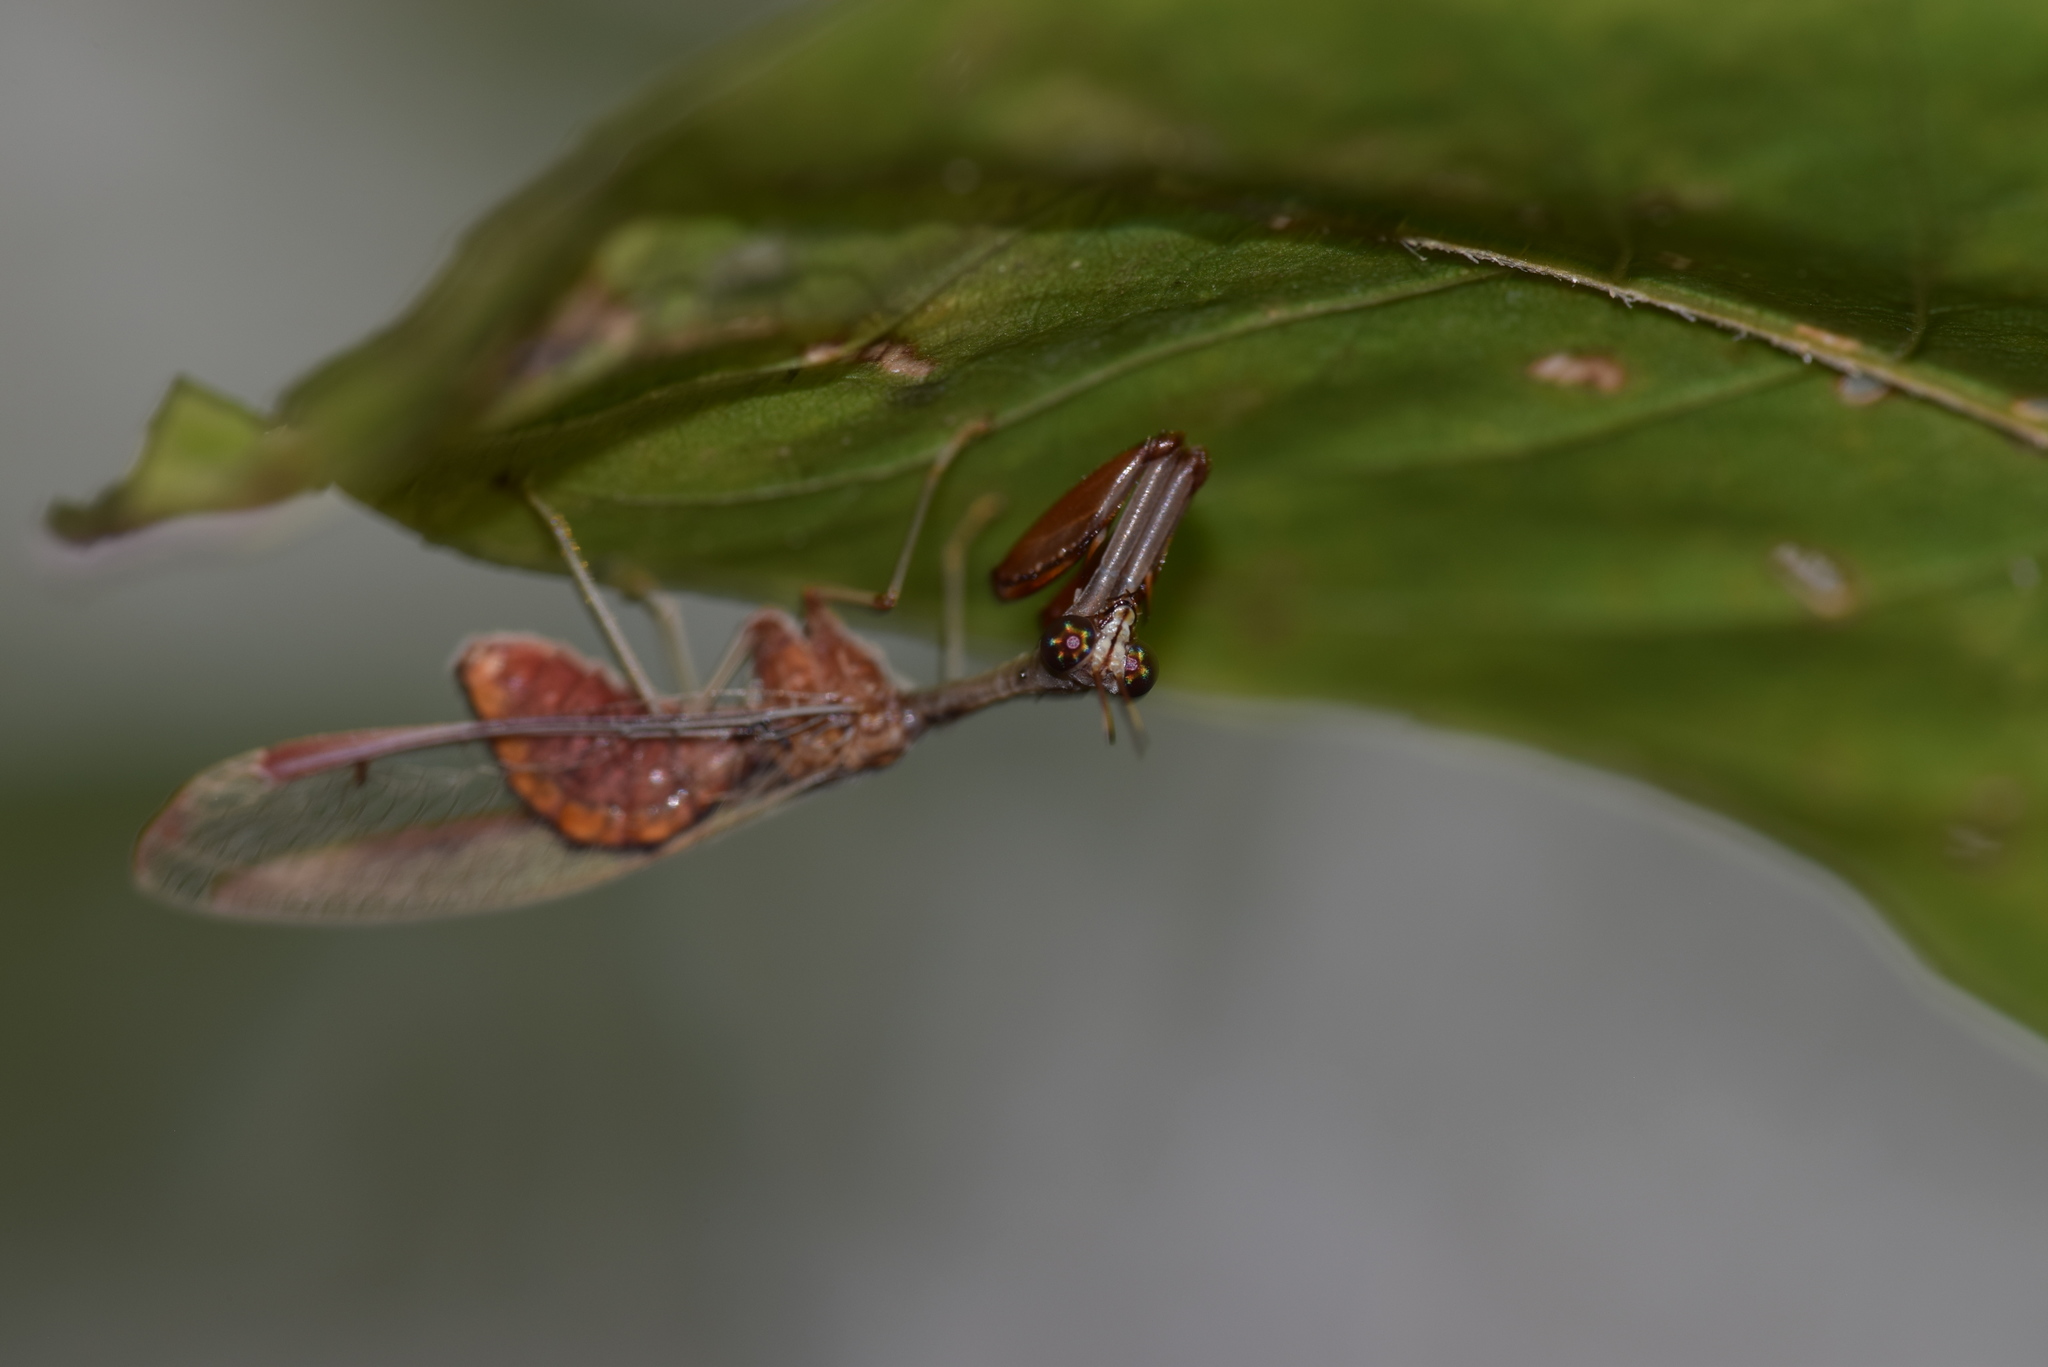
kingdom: Animalia
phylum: Arthropoda
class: Insecta
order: Neuroptera
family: Mantispidae
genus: Dicromantispa
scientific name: Dicromantispa interrupta
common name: Four-spotted mantidfly
